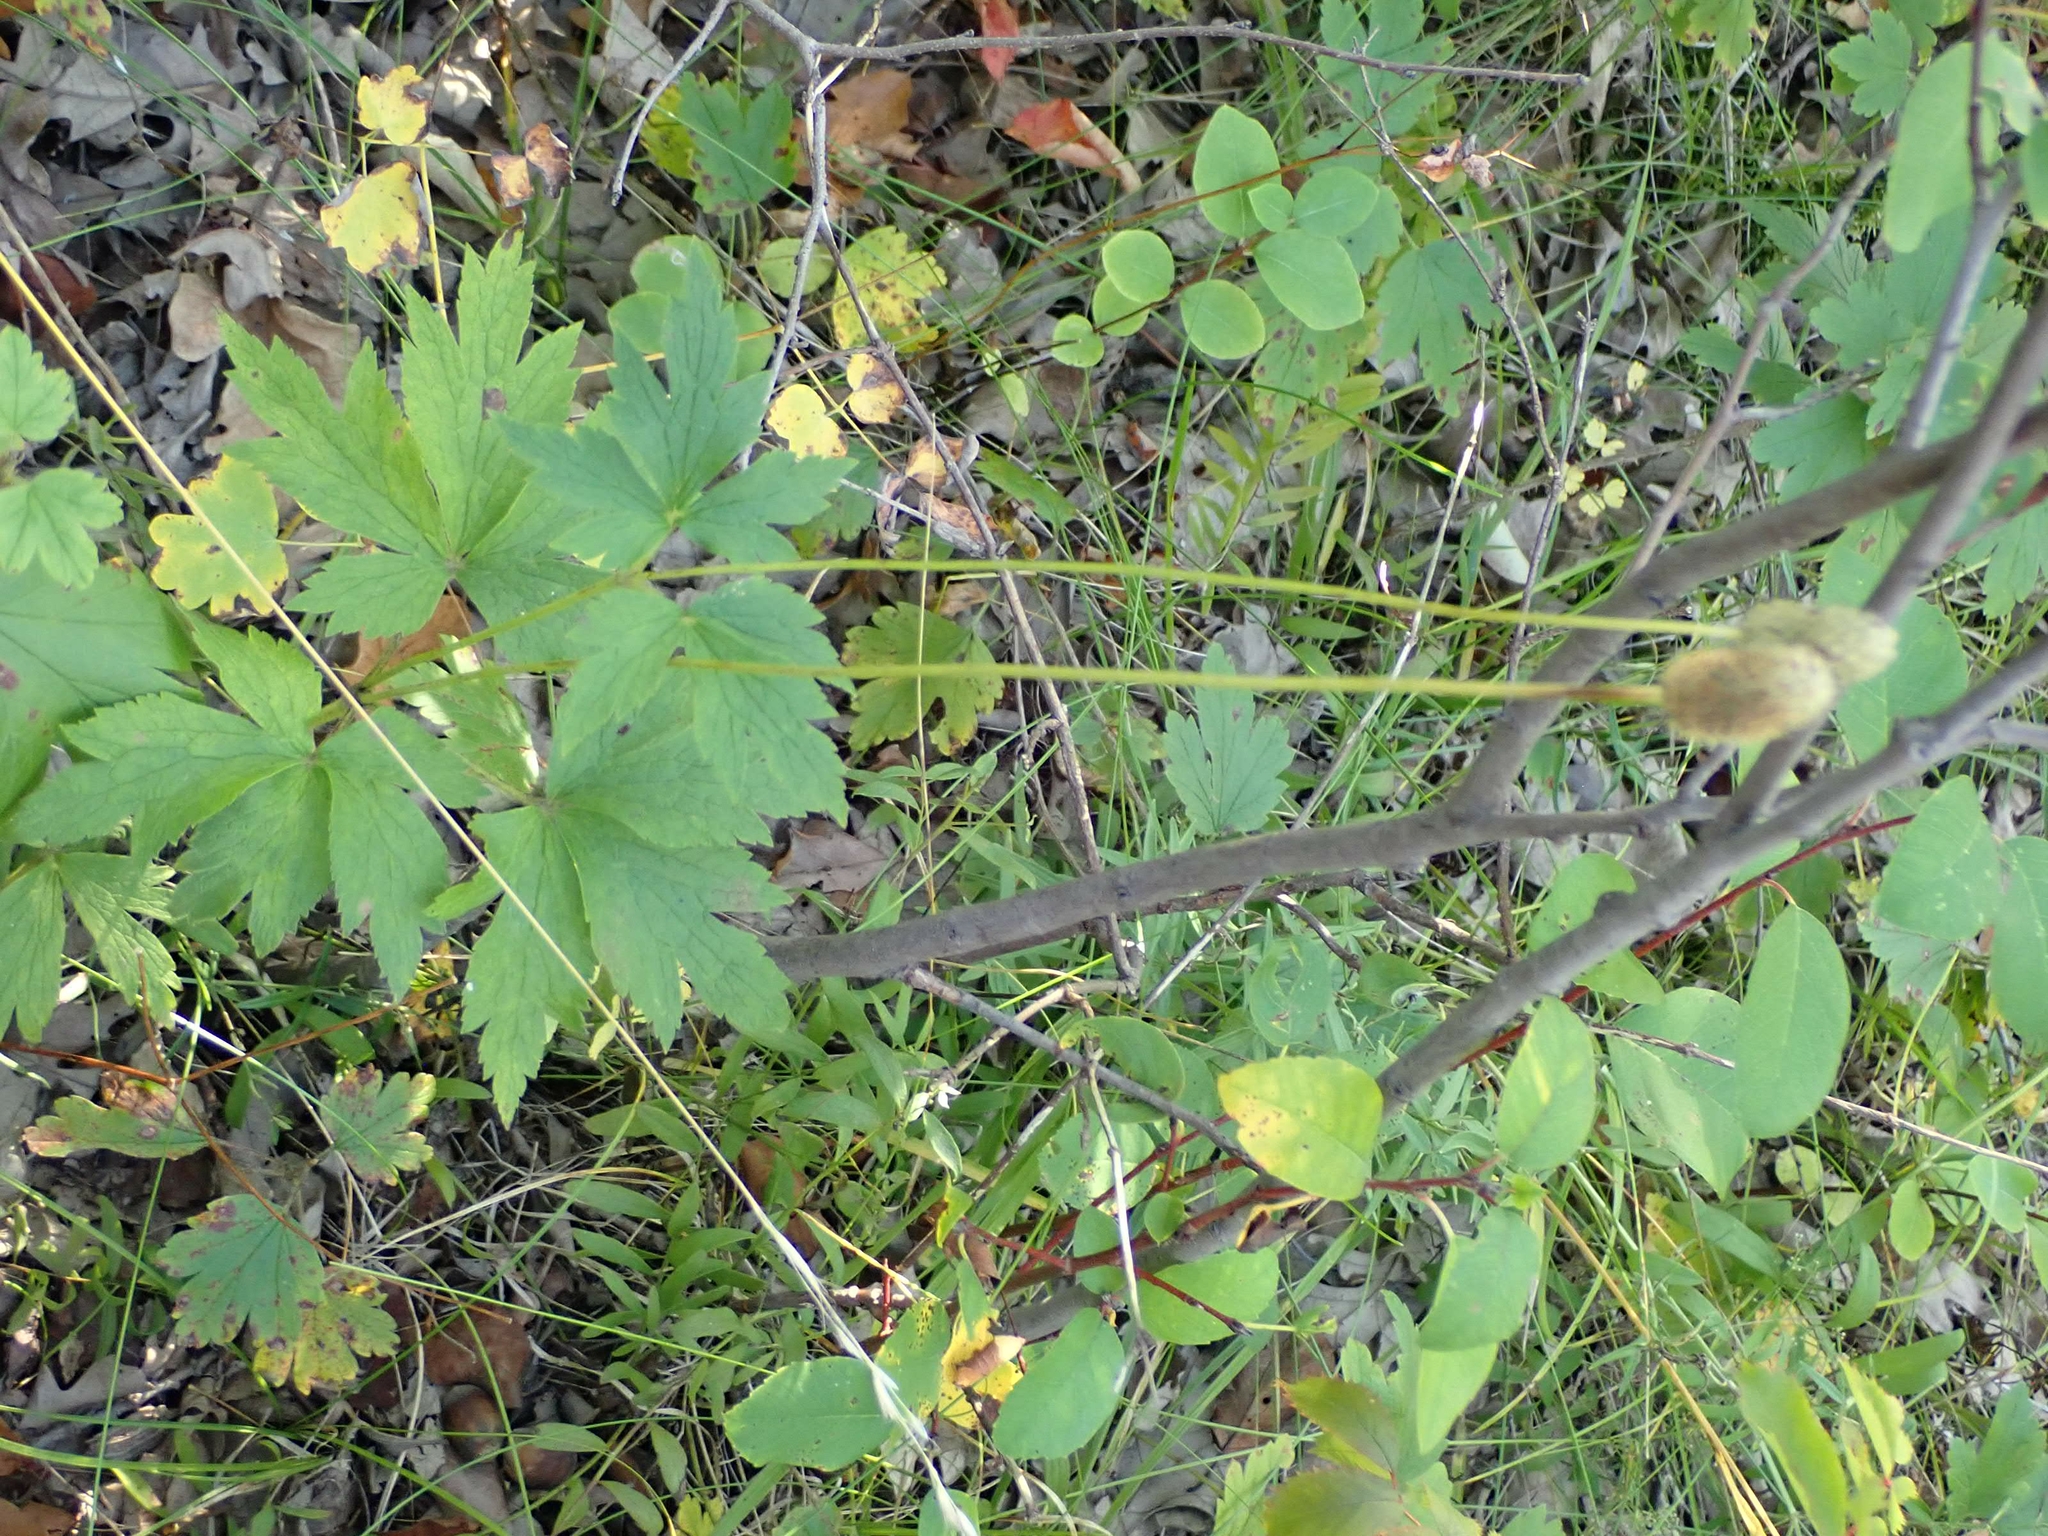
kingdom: Plantae
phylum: Tracheophyta
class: Magnoliopsida
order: Ranunculales
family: Ranunculaceae
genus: Anemone
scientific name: Anemone virginiana
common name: Tall anemone
